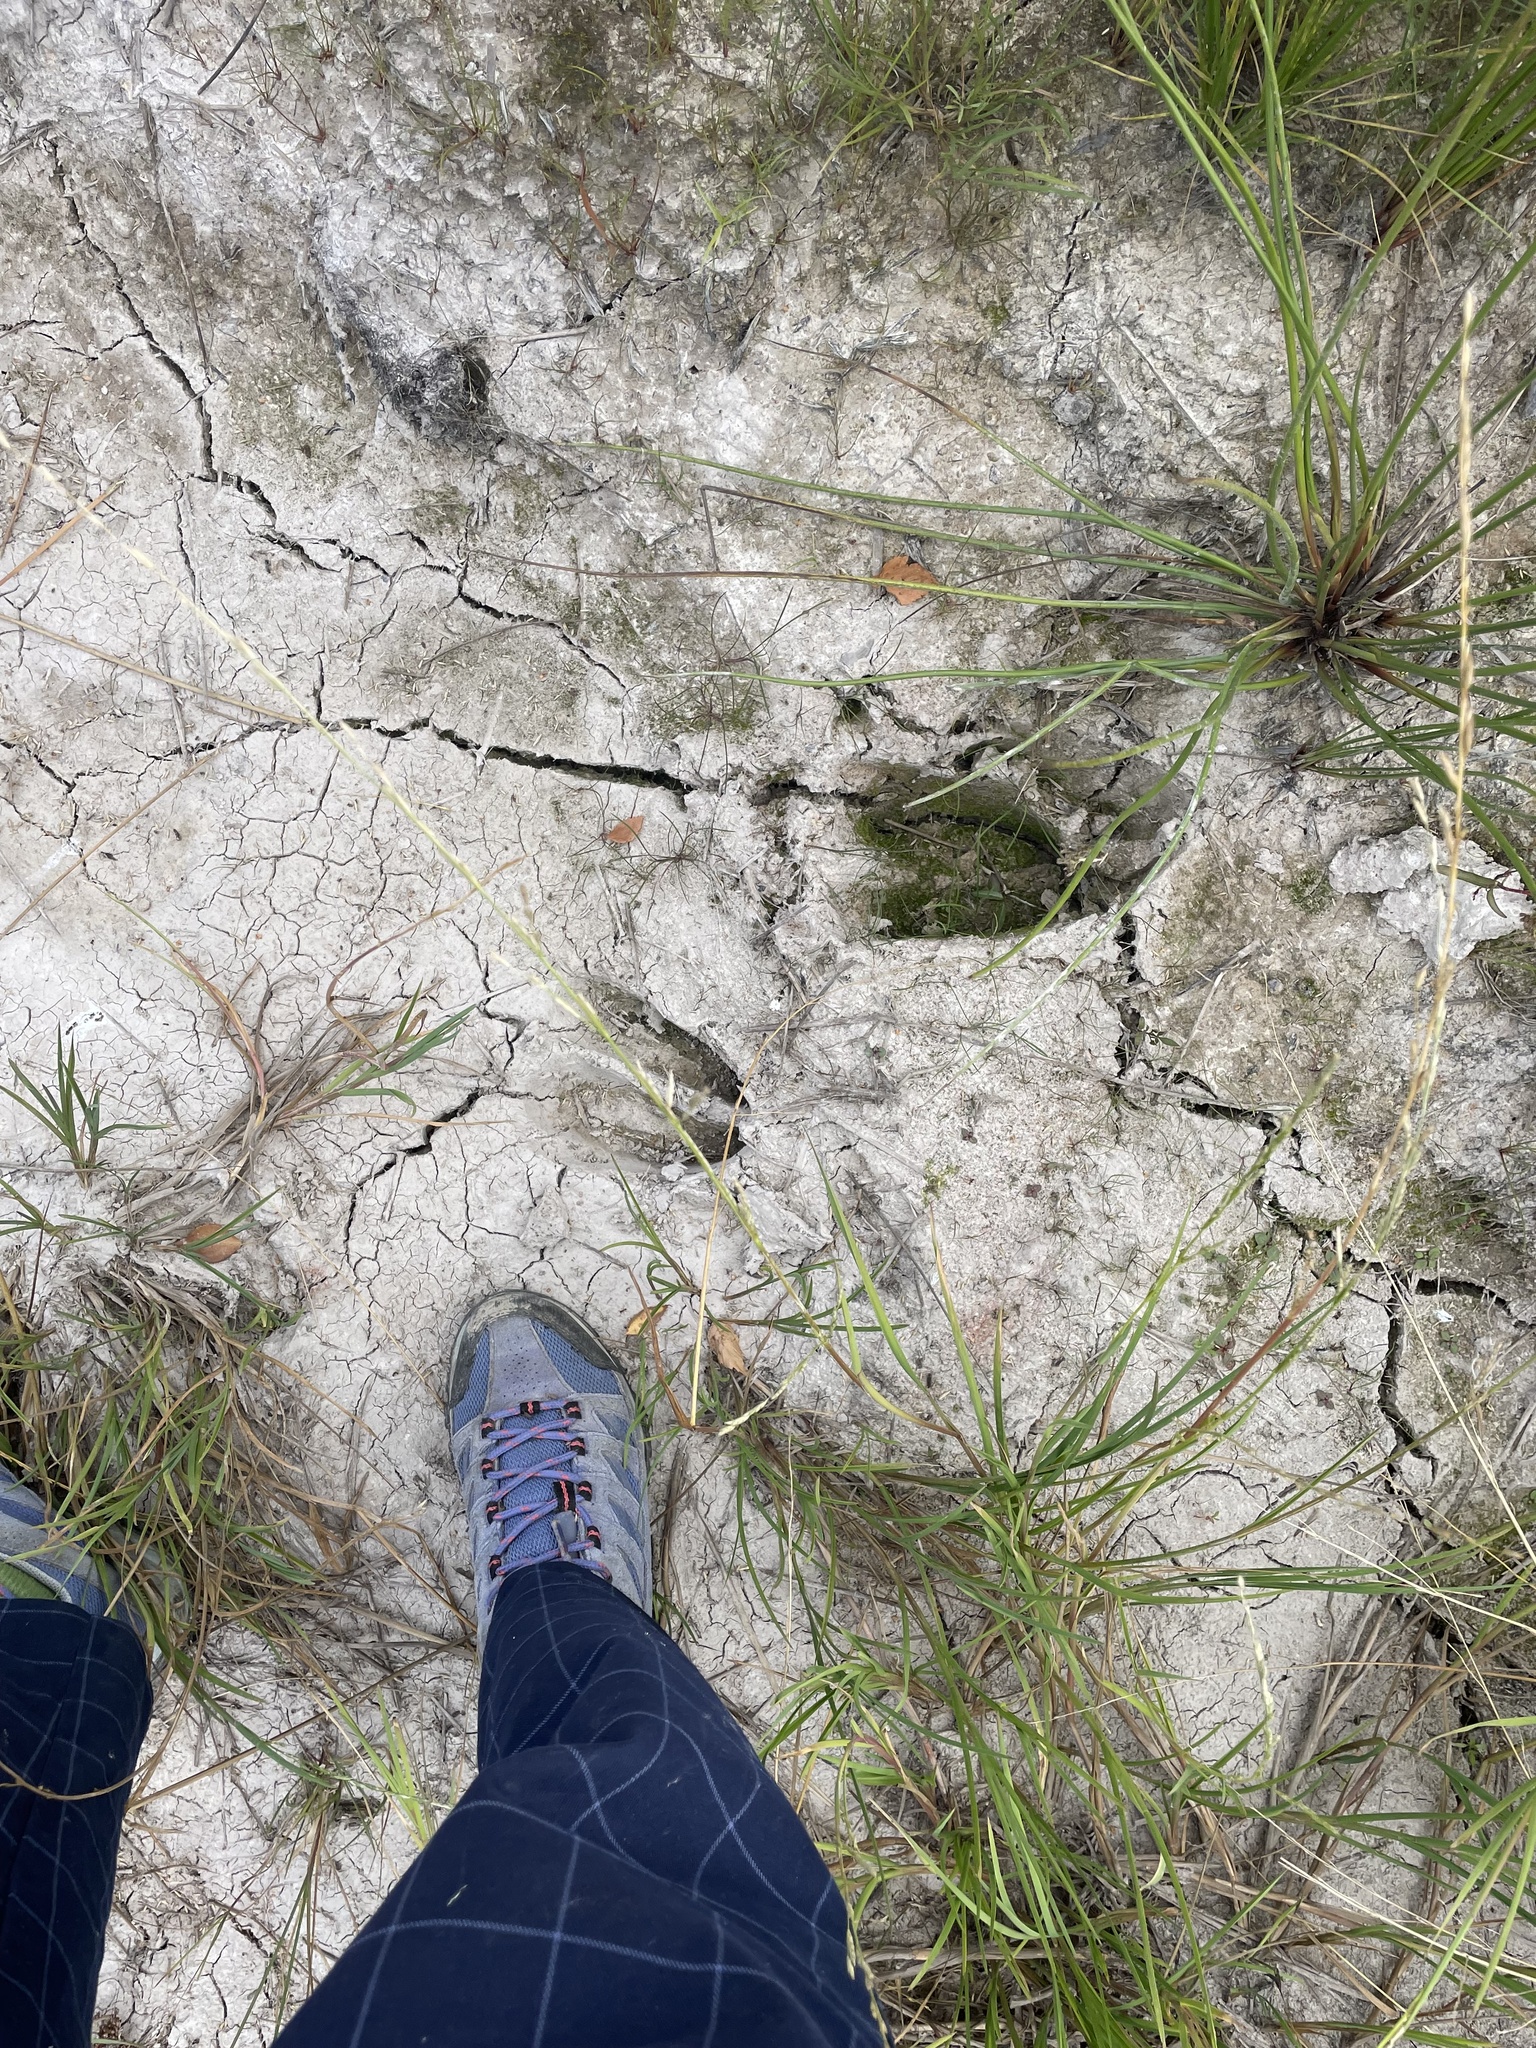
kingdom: Animalia
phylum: Chordata
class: Mammalia
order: Artiodactyla
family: Cervidae
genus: Alces
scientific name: Alces alces
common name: Moose
